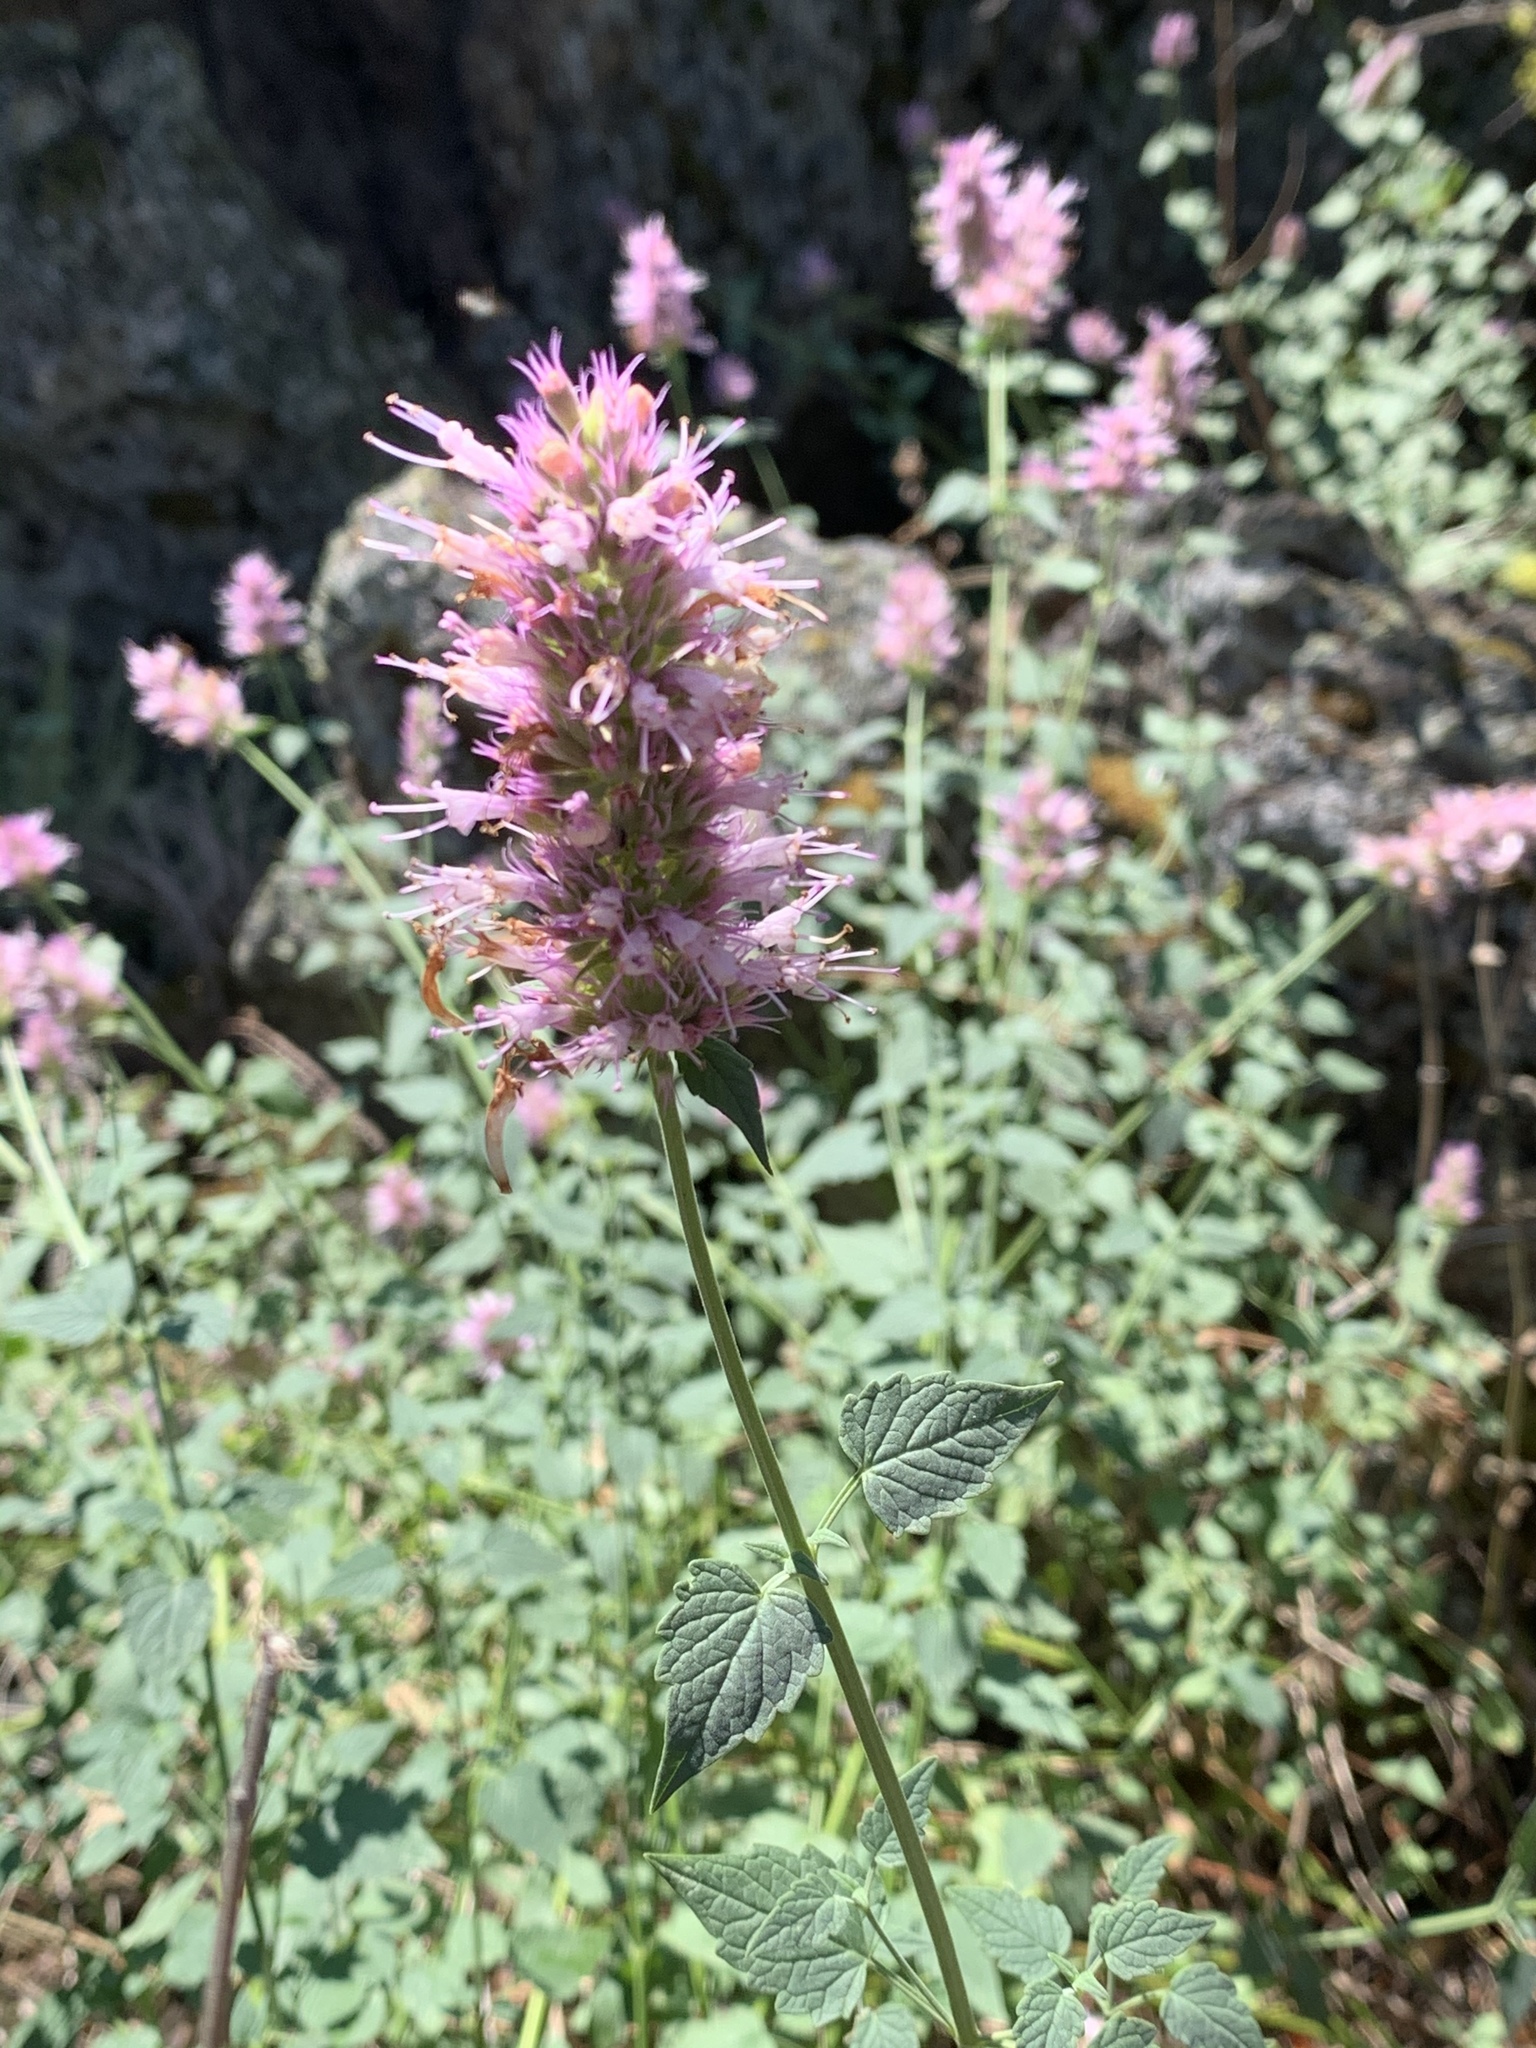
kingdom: Plantae
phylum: Tracheophyta
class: Magnoliopsida
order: Lamiales
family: Lamiaceae
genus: Agastache
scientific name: Agastache parvifolia
